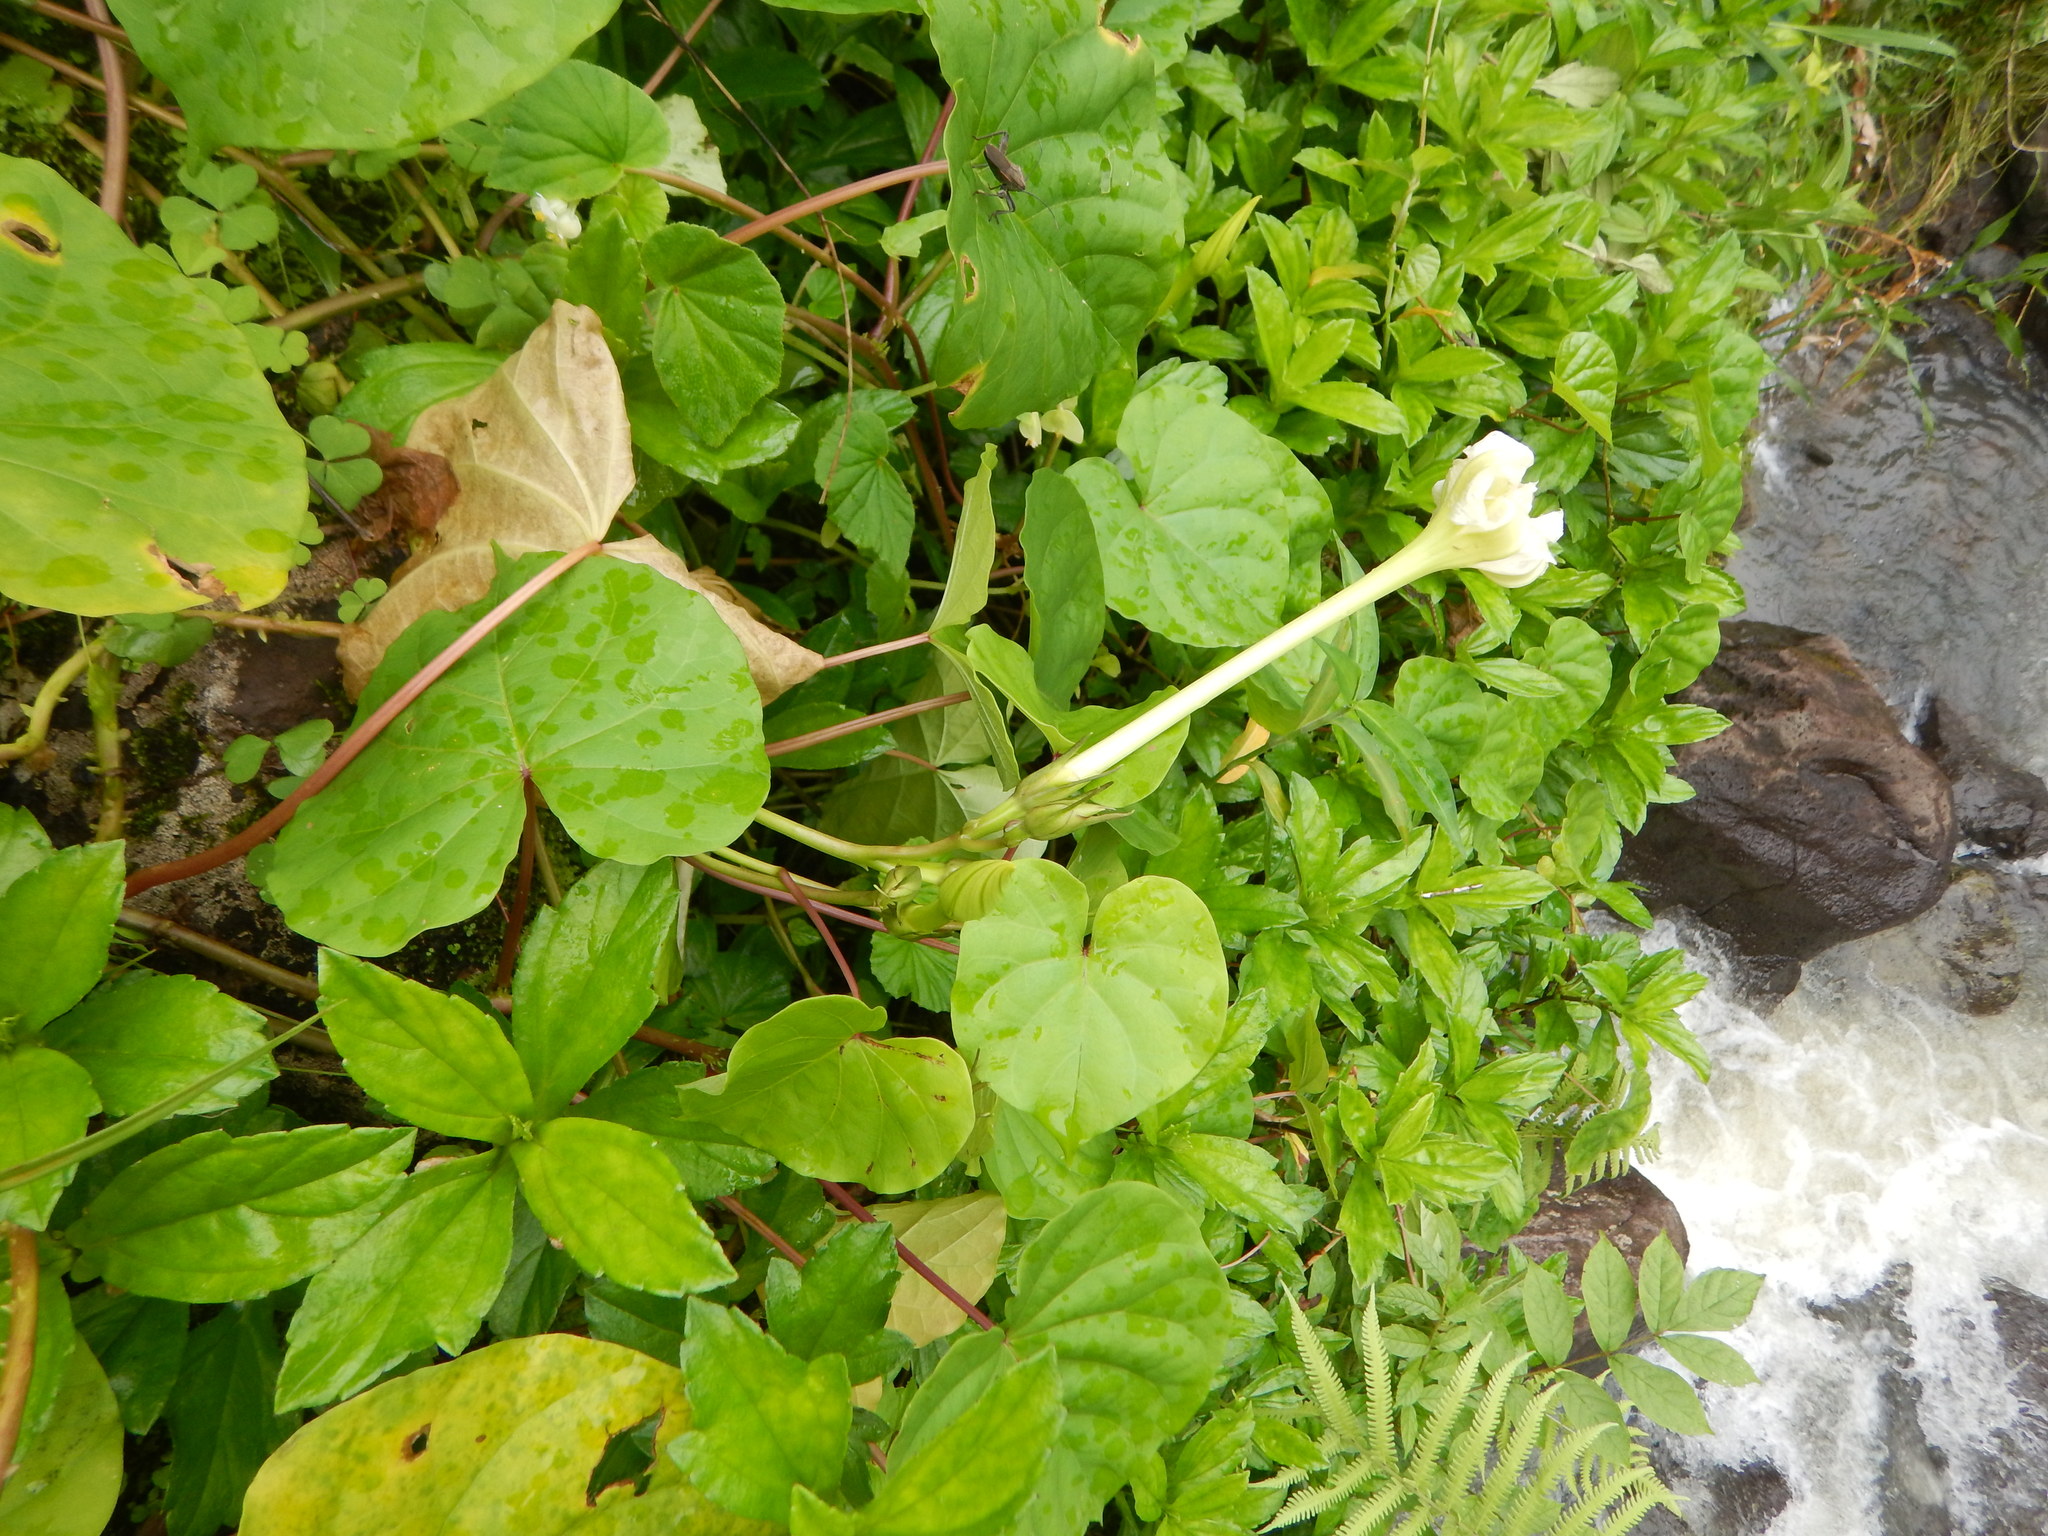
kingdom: Plantae
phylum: Tracheophyta
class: Magnoliopsida
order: Solanales
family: Convolvulaceae
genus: Ipomoea
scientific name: Ipomoea alba
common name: Moonflower
